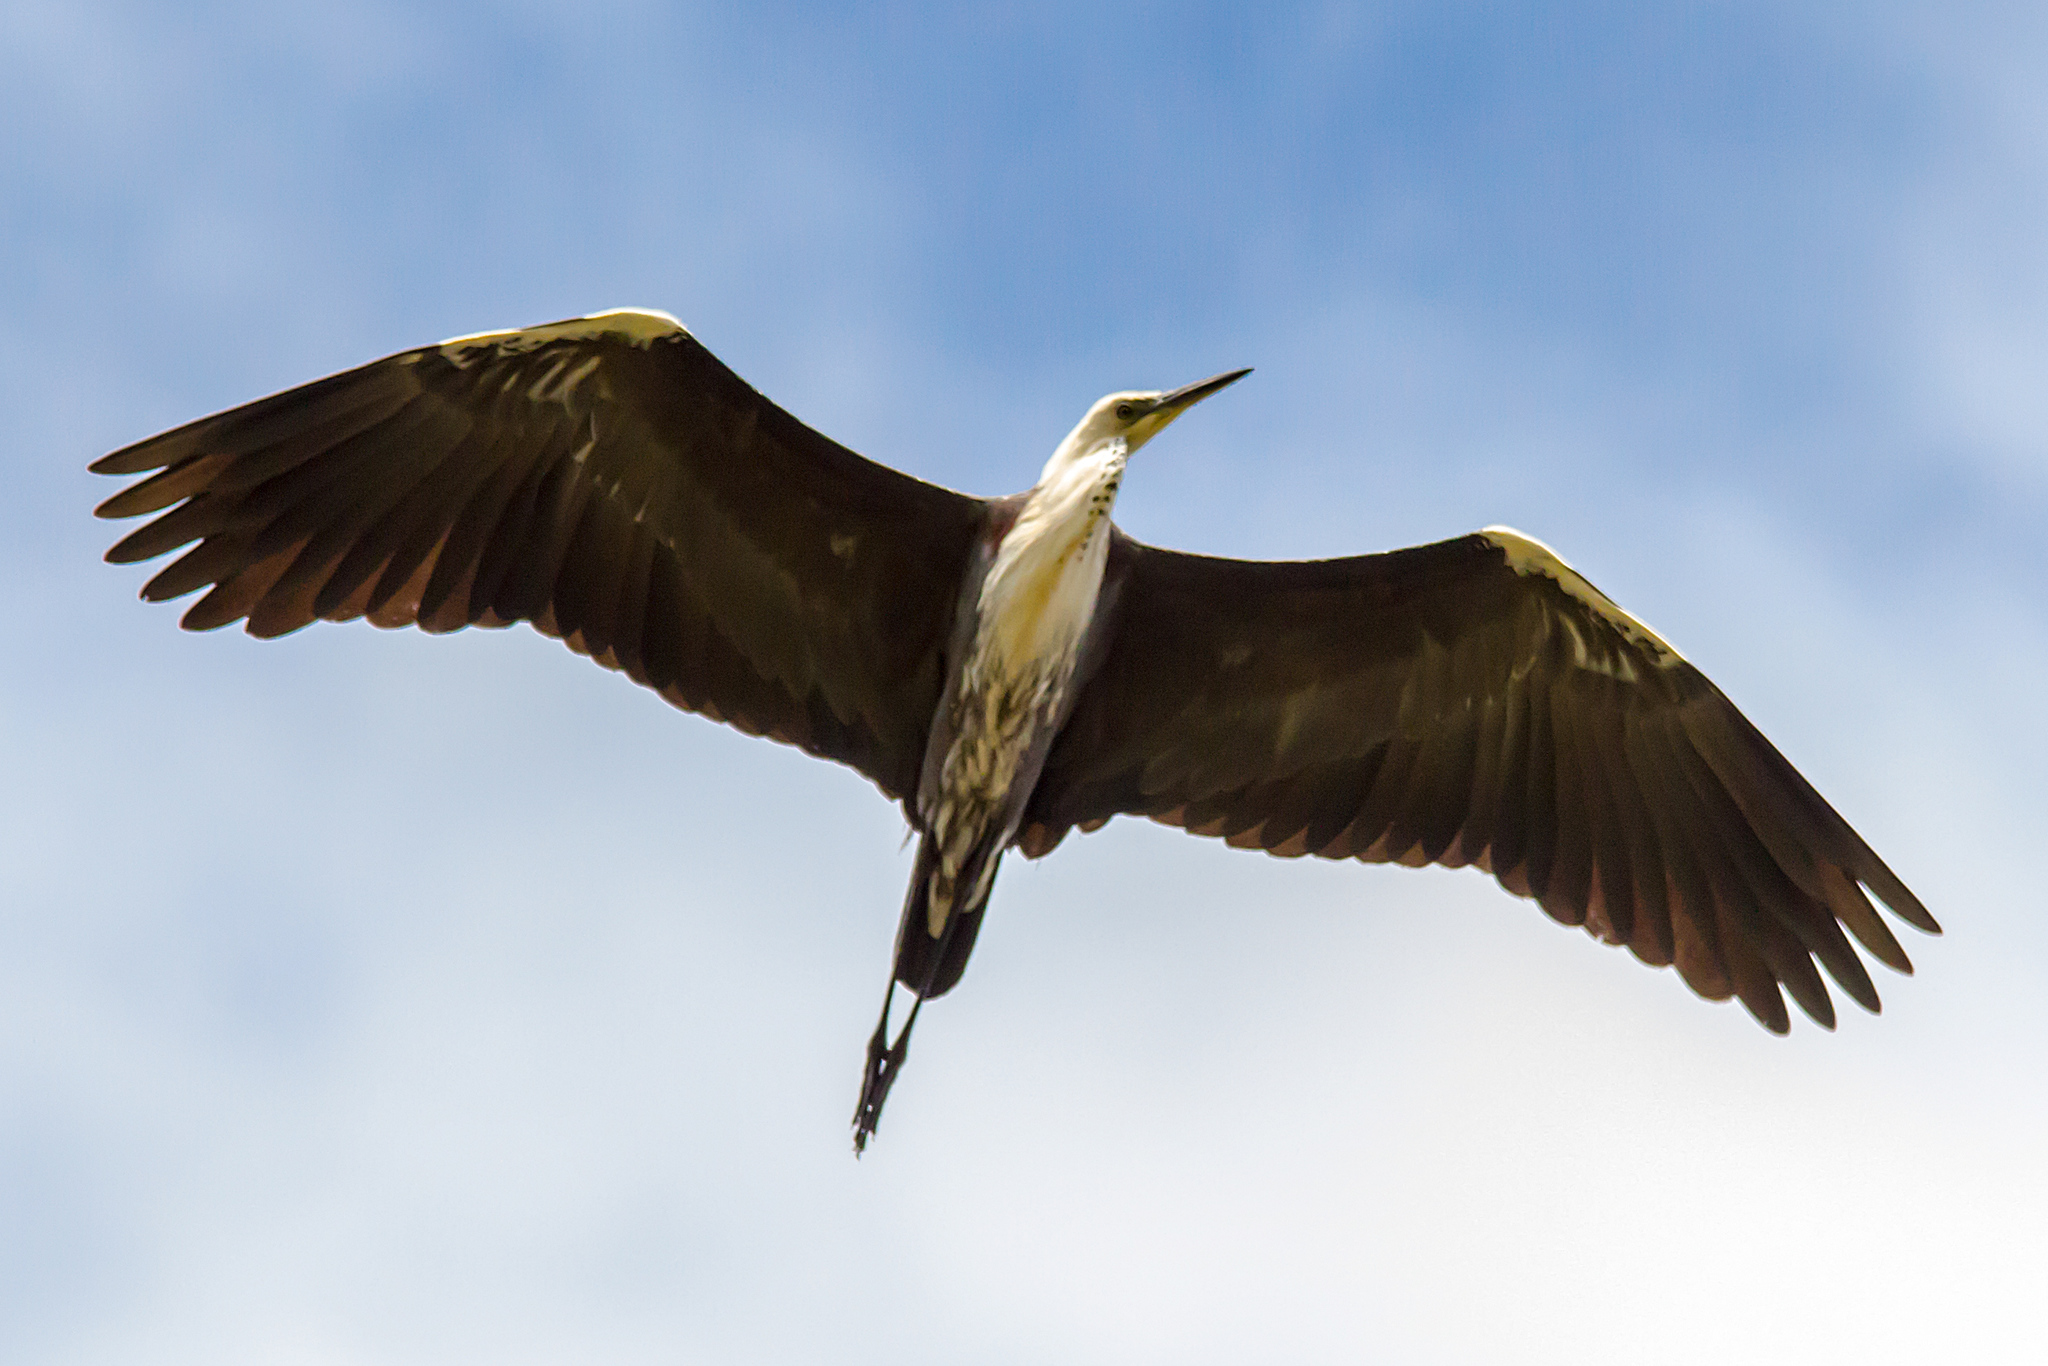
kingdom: Animalia
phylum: Chordata
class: Aves
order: Pelecaniformes
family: Ardeidae
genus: Ardea
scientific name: Ardea pacifica
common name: White-necked heron
